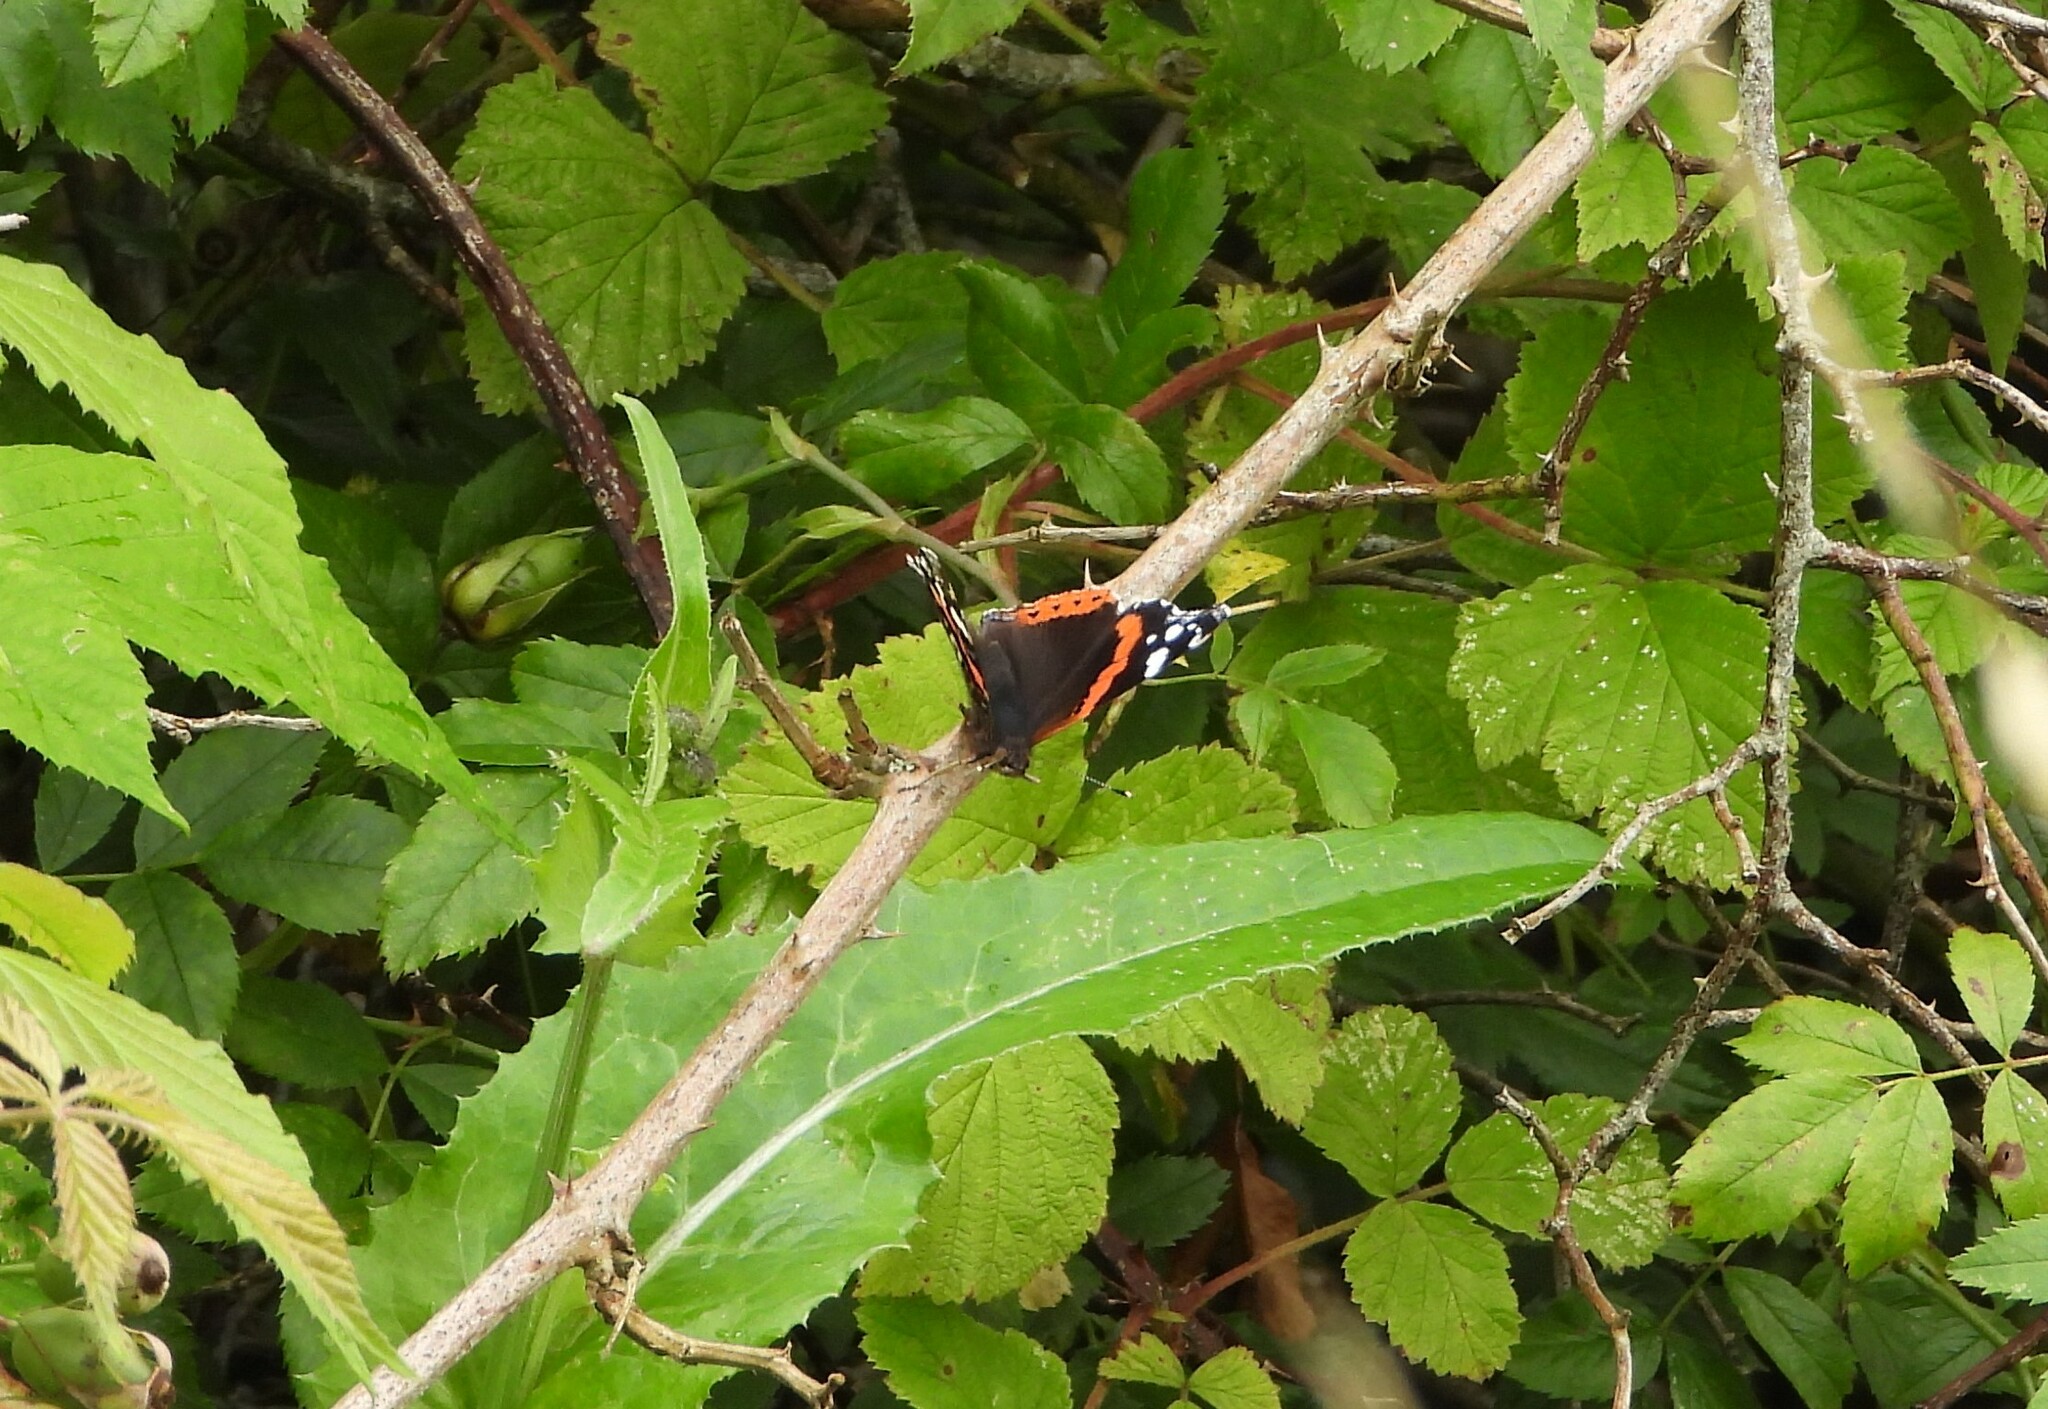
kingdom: Animalia
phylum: Arthropoda
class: Insecta
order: Lepidoptera
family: Nymphalidae
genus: Vanessa
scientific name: Vanessa atalanta
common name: Red admiral
